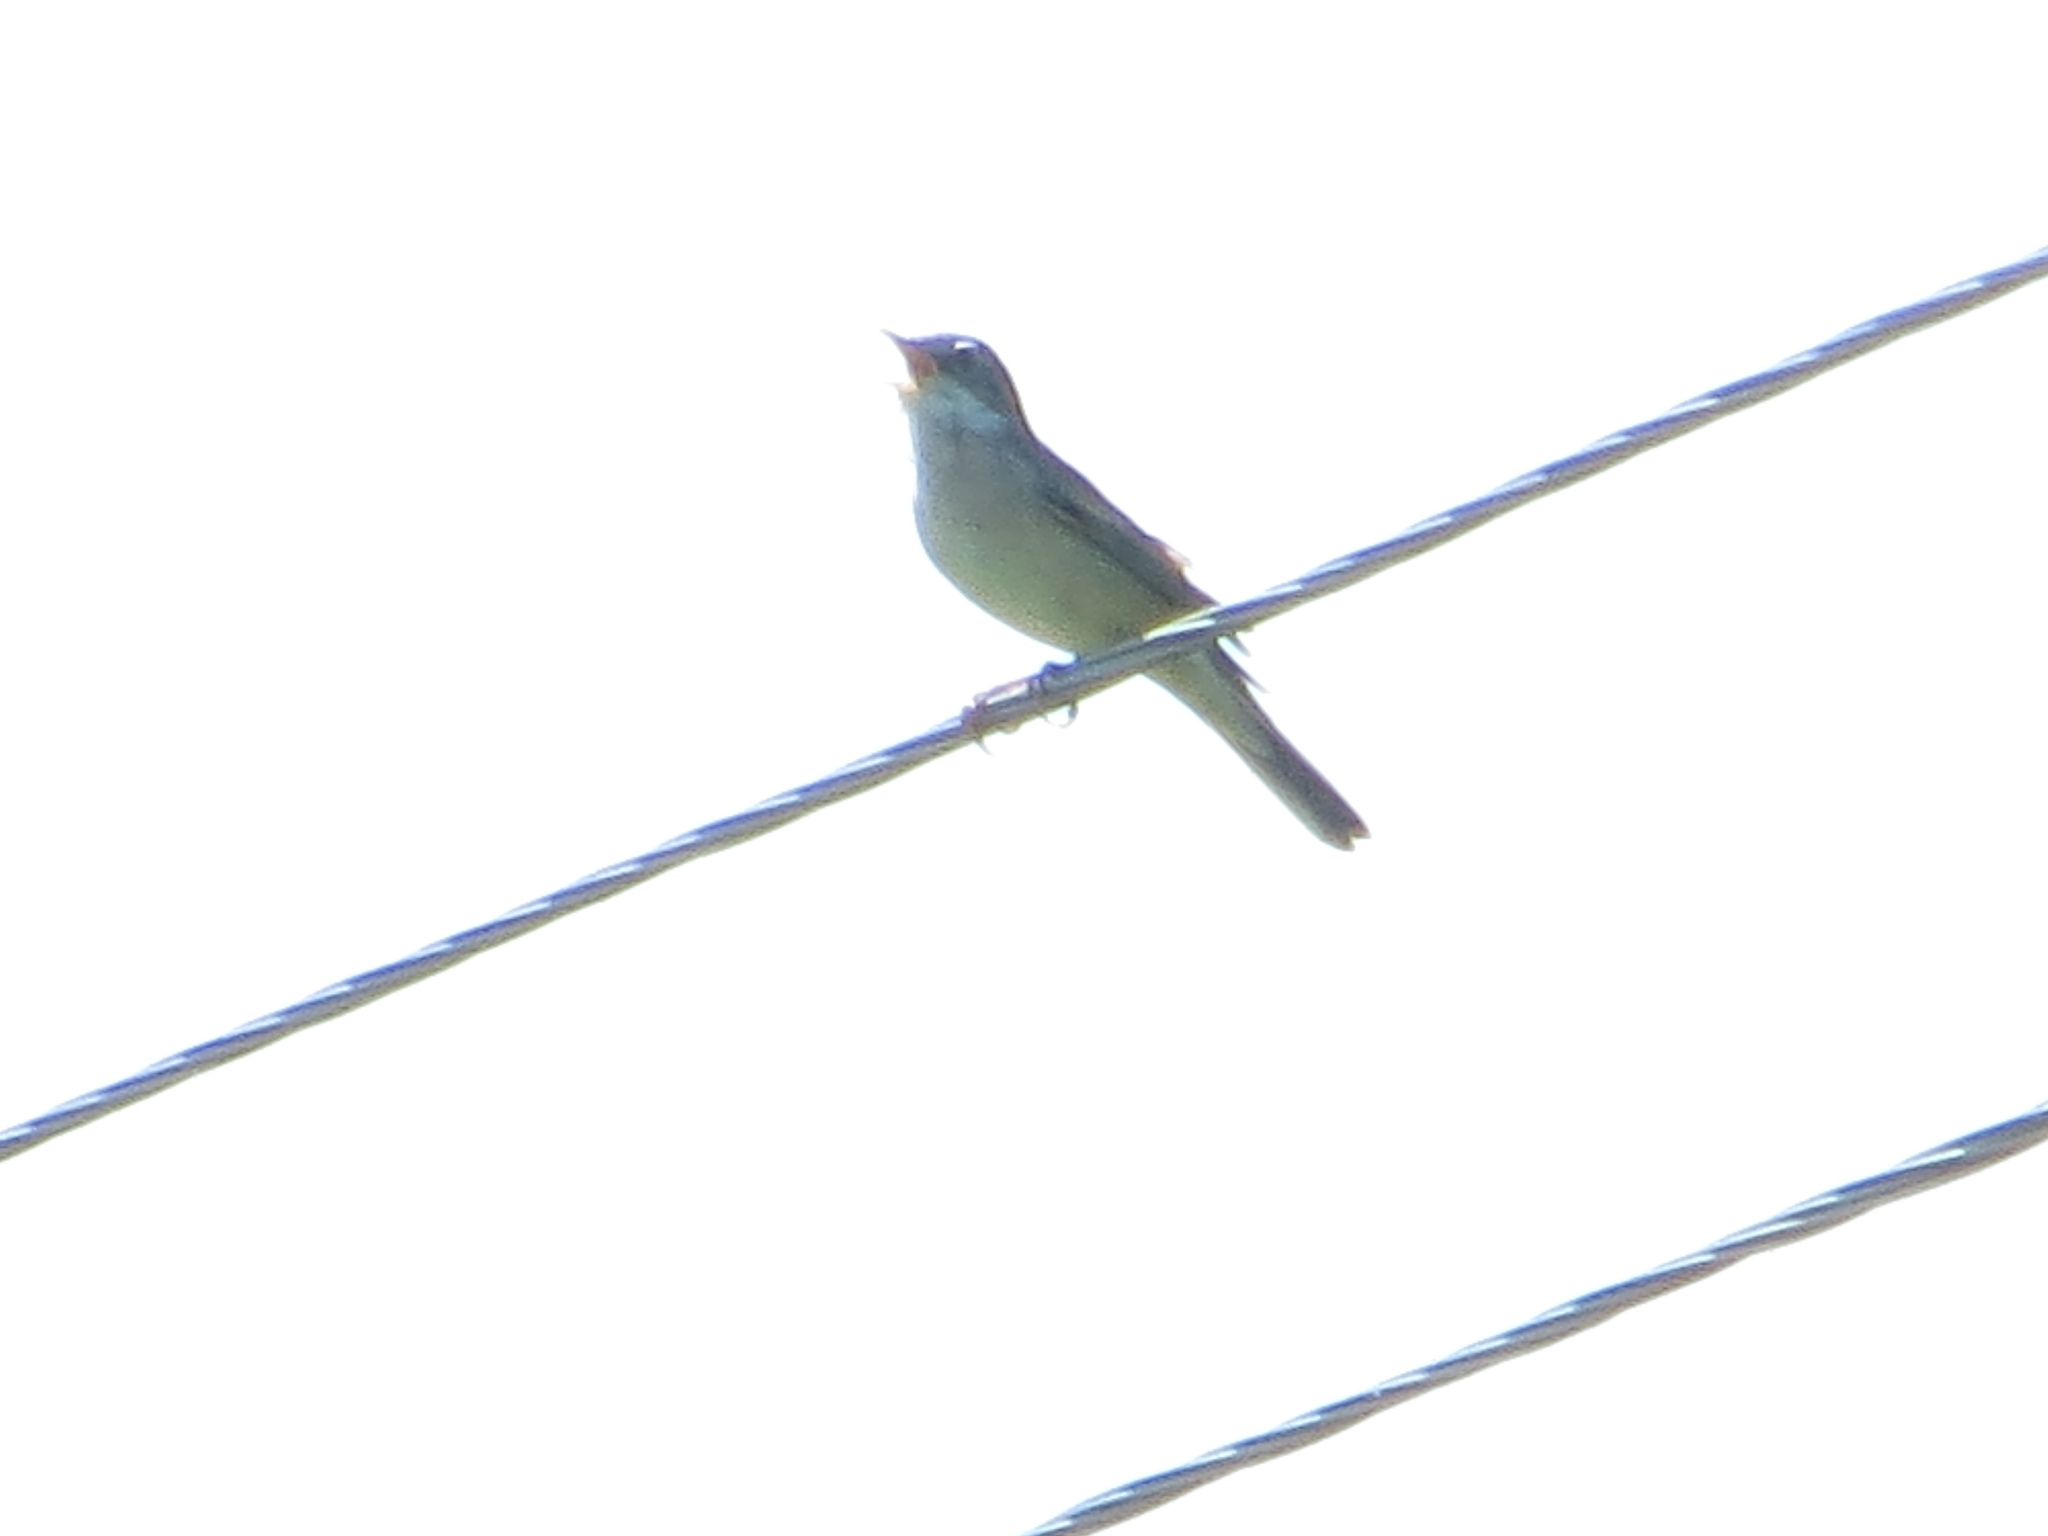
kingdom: Animalia
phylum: Chordata
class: Aves
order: Passeriformes
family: Sylviidae
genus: Sylvia
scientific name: Sylvia communis
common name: Common whitethroat
